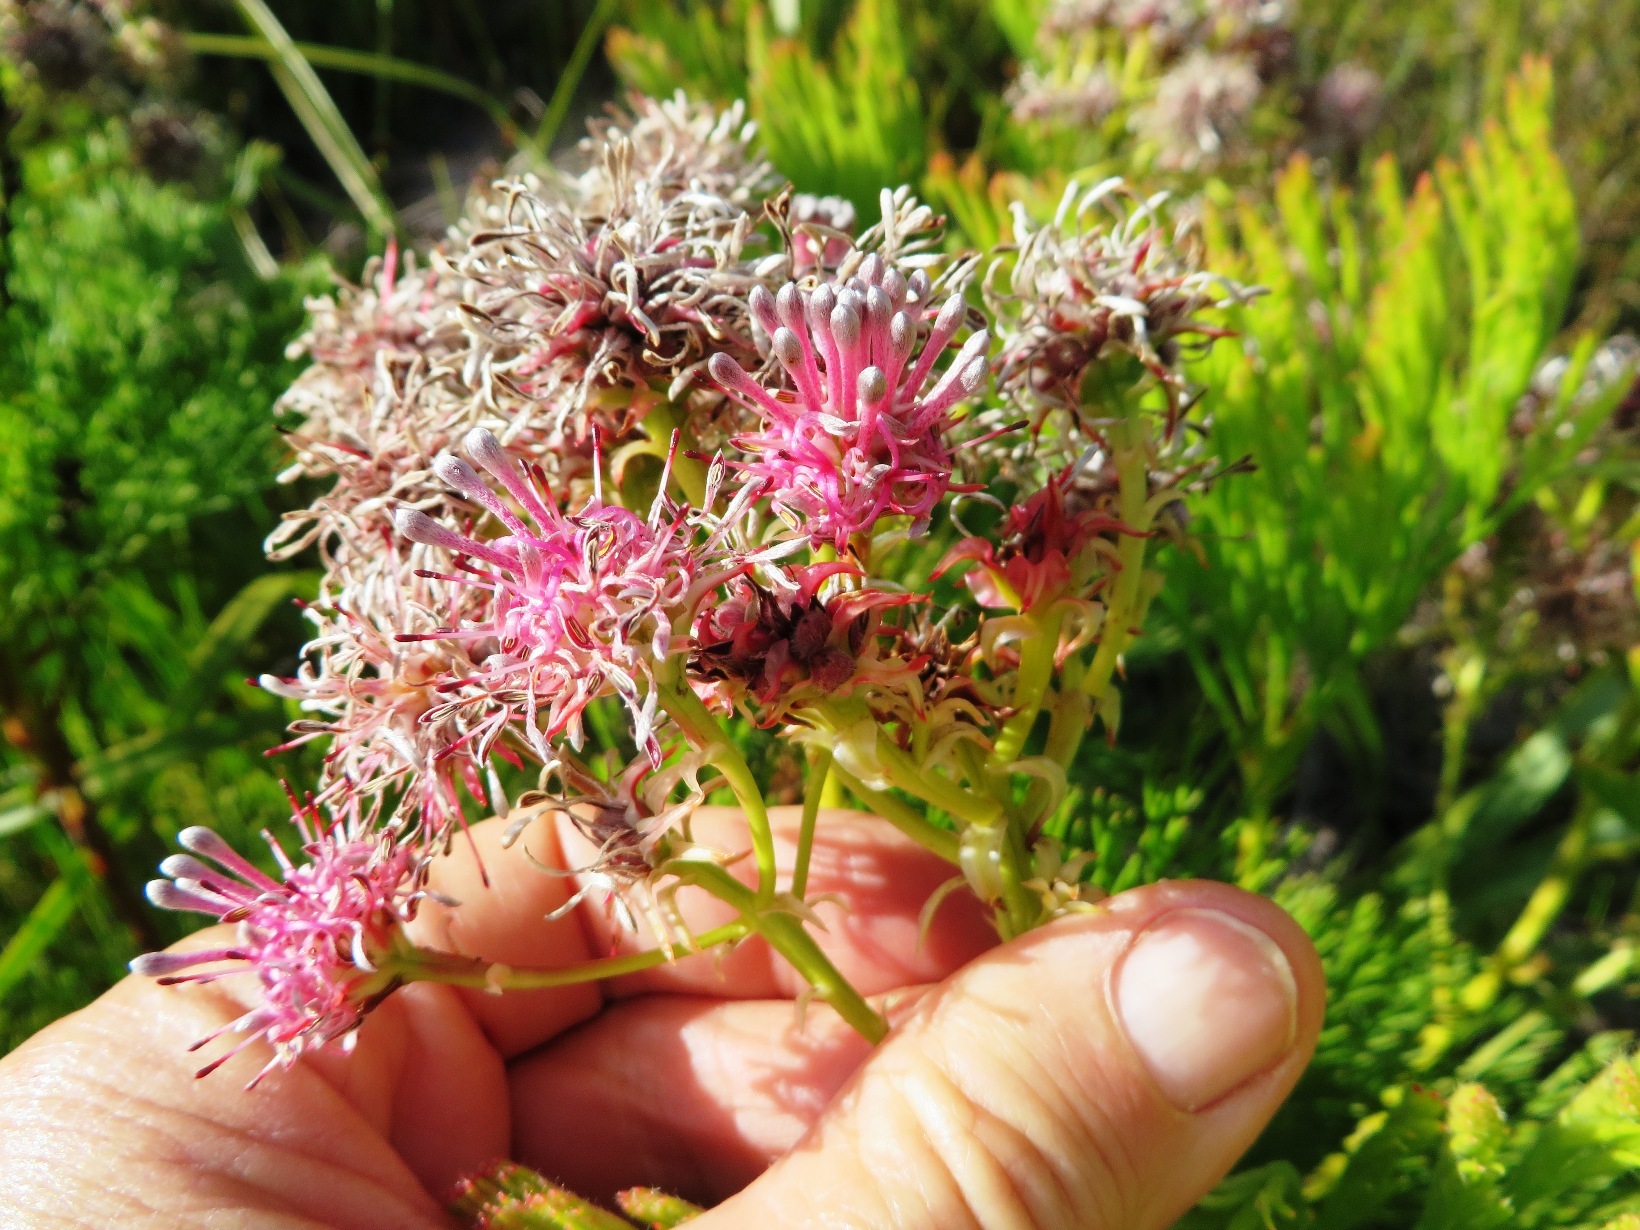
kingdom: Plantae
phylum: Tracheophyta
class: Magnoliopsida
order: Proteales
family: Proteaceae
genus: Serruria
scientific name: Serruria elongata
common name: Long-stalk spiderhead
